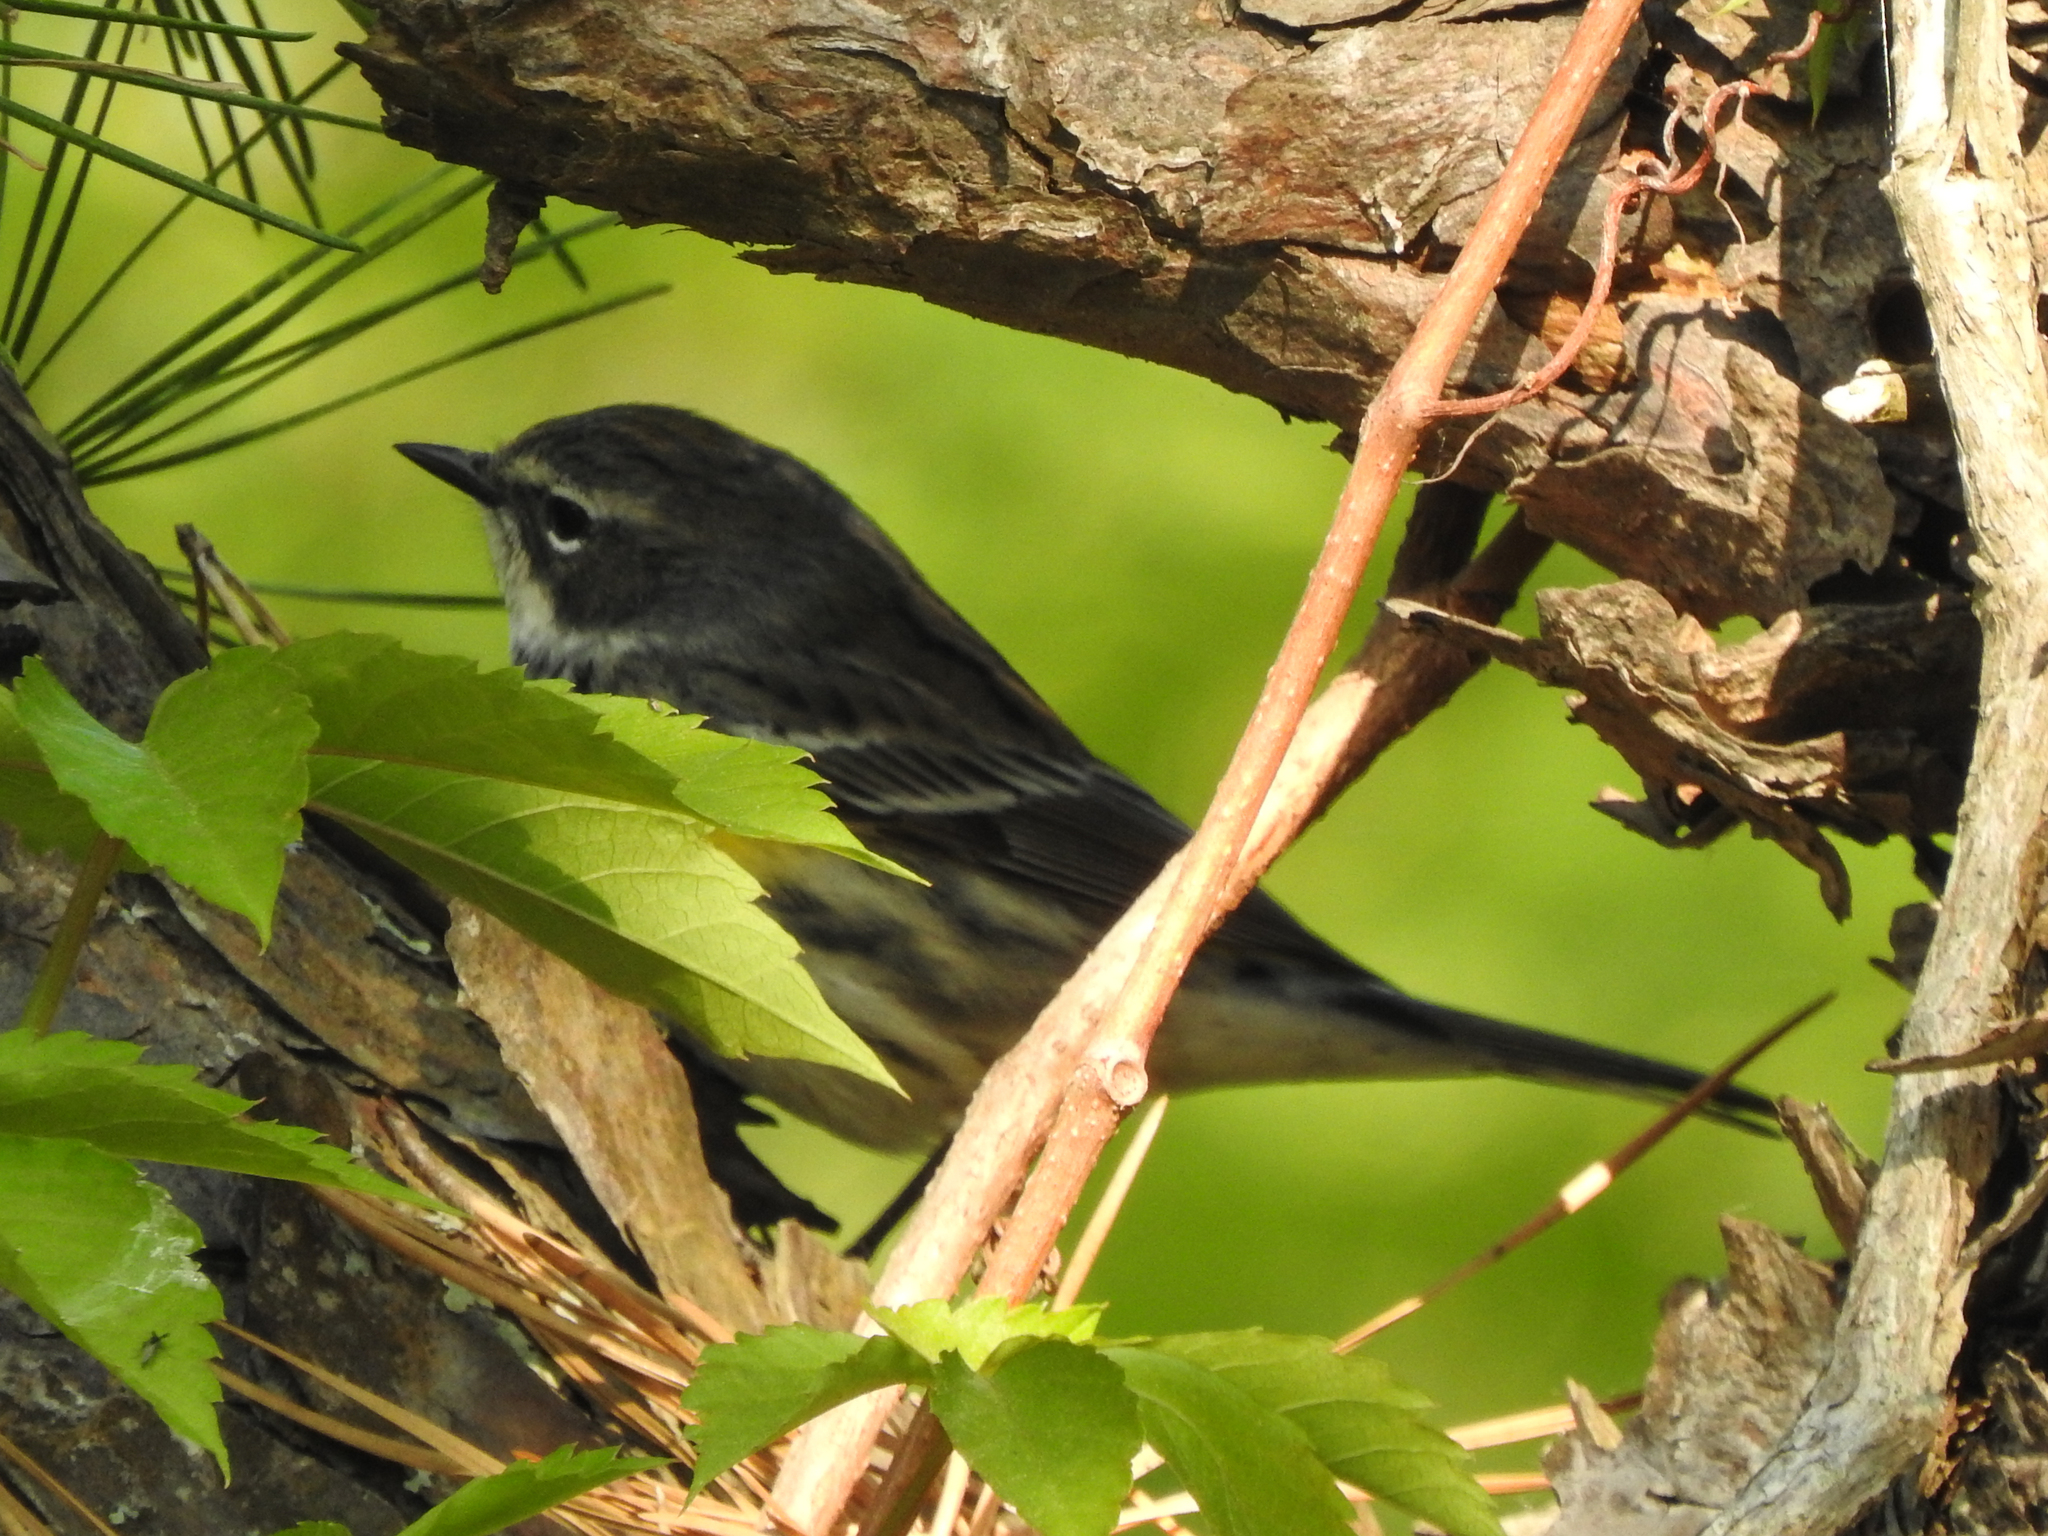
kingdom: Animalia
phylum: Chordata
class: Aves
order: Passeriformes
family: Parulidae
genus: Setophaga
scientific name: Setophaga coronata
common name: Myrtle warbler
